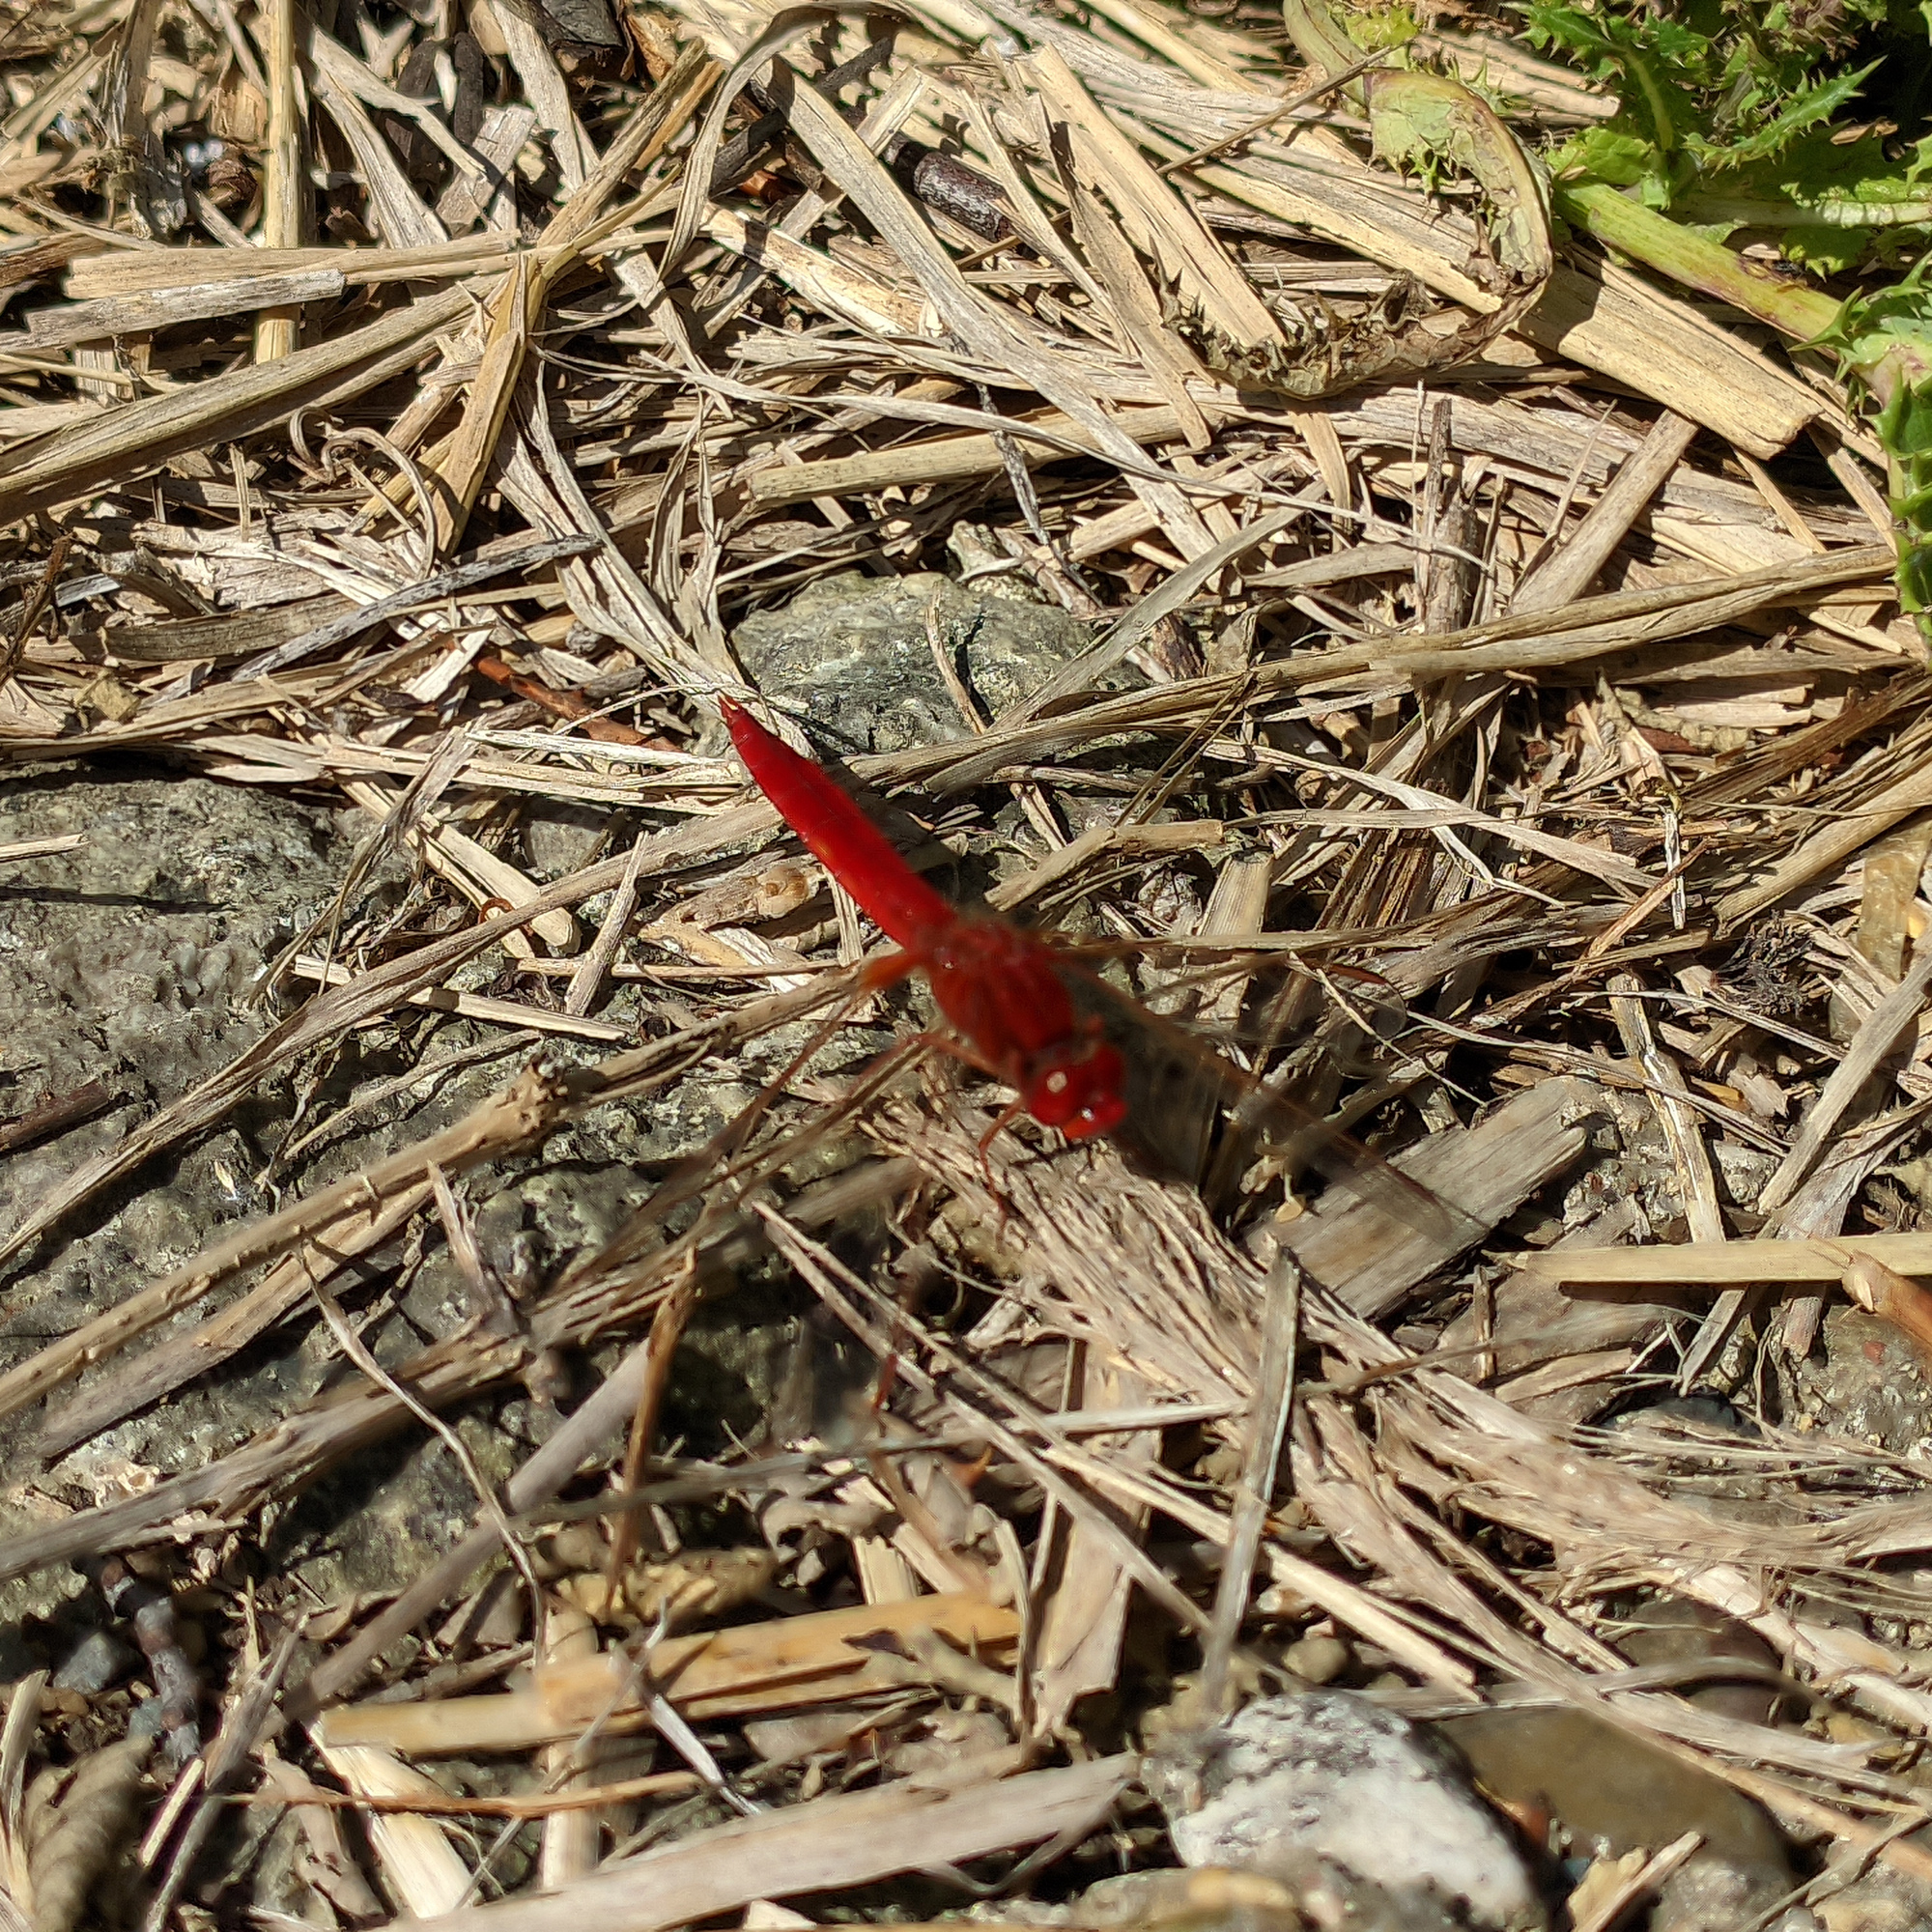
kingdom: Animalia
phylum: Arthropoda
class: Insecta
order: Odonata
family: Libellulidae
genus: Crocothemis
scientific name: Crocothemis erythraea
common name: Scarlet dragonfly
